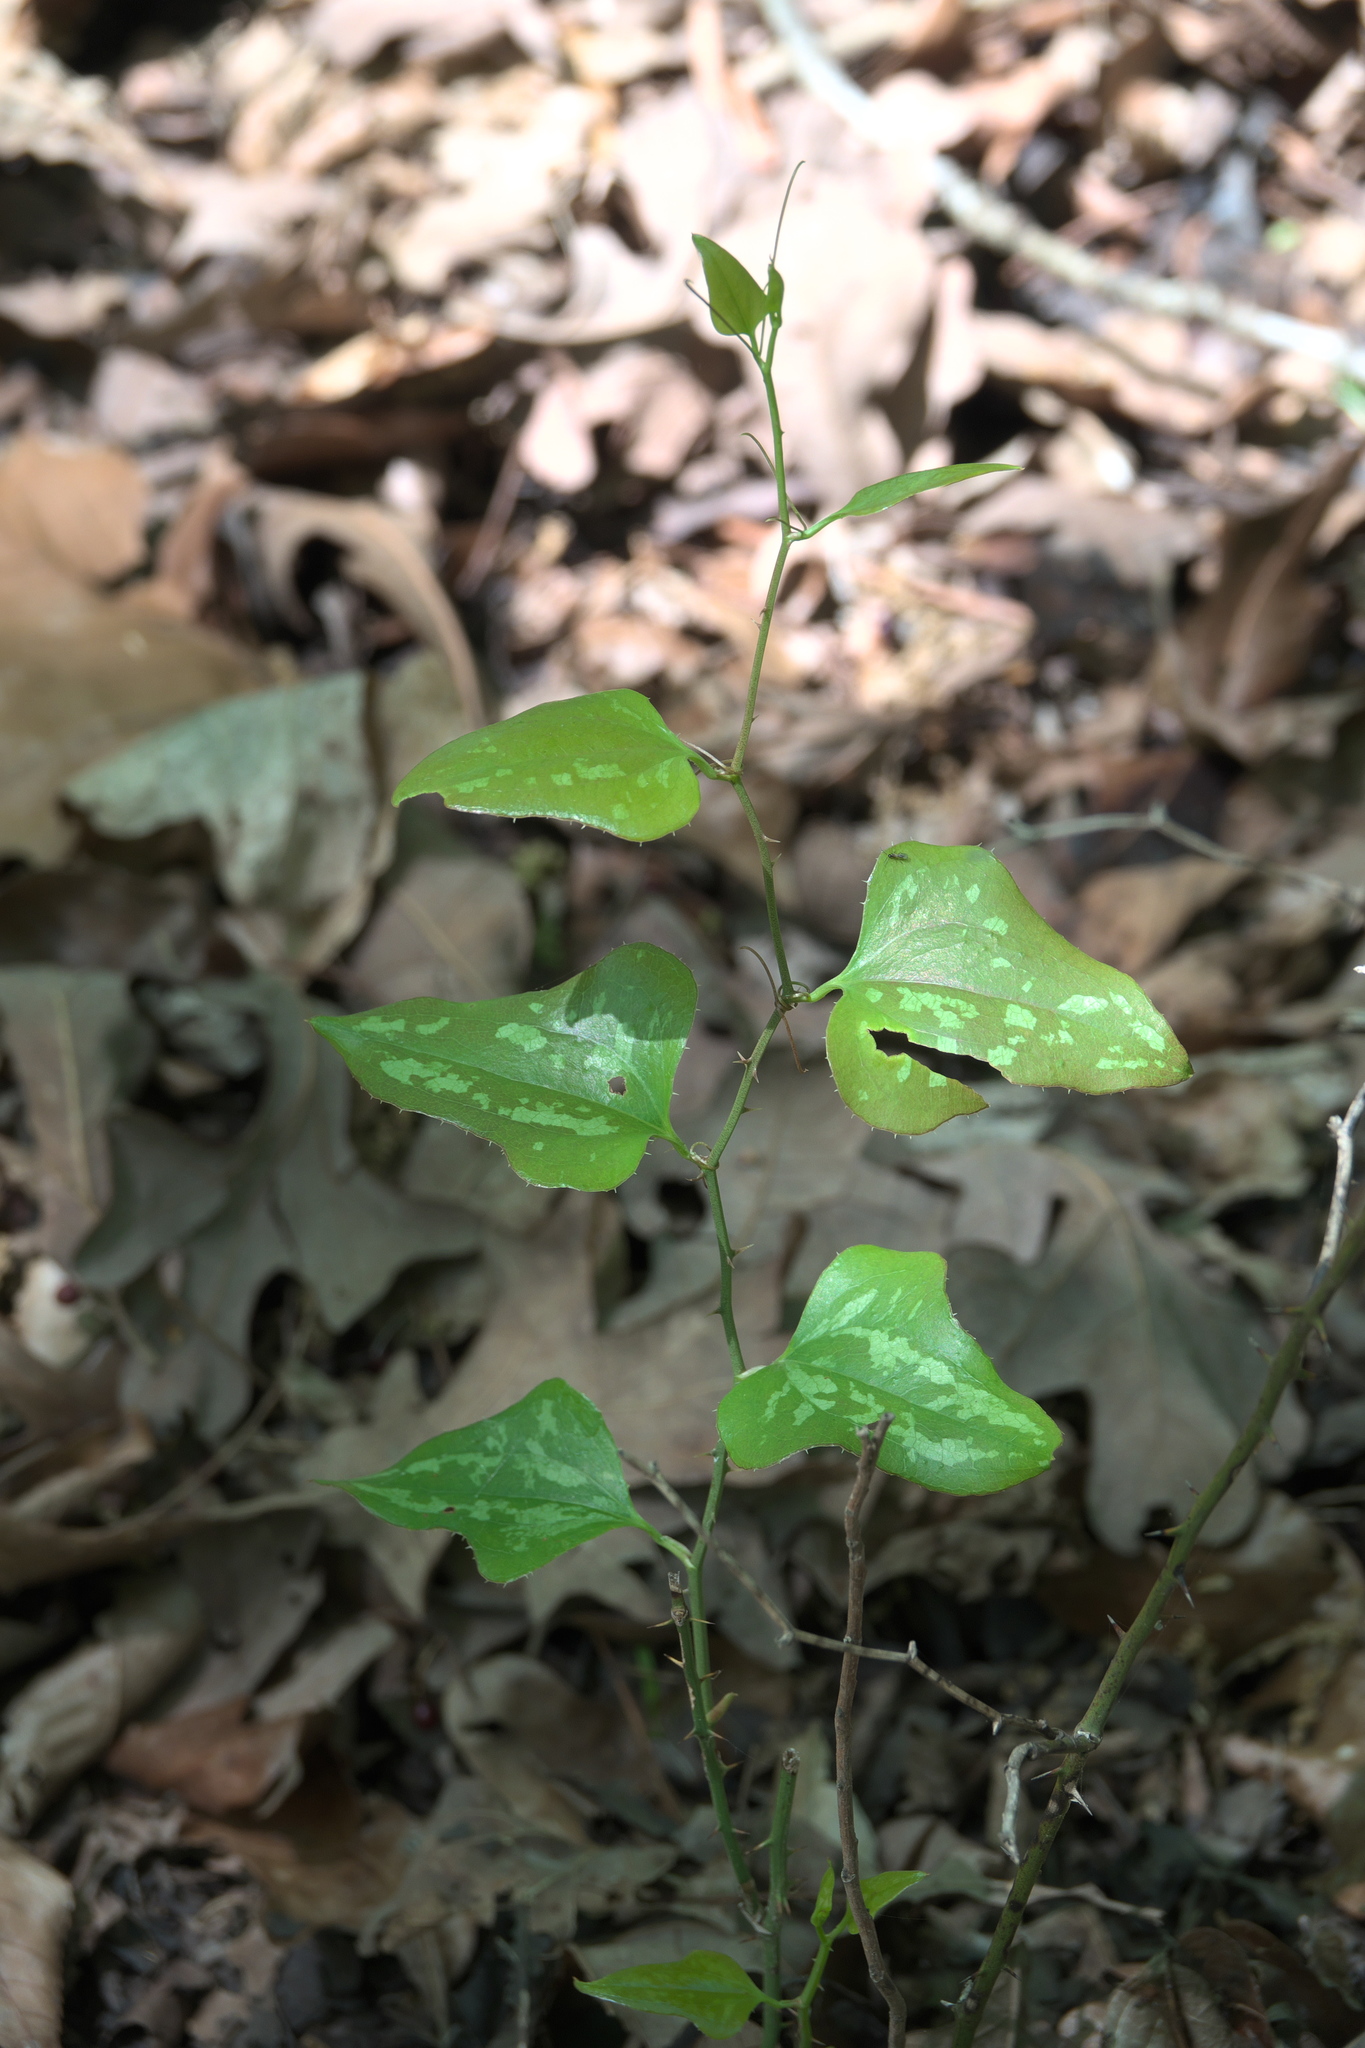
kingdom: Plantae
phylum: Tracheophyta
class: Liliopsida
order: Liliales
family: Smilacaceae
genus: Smilax
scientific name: Smilax bona-nox
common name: Catbrier
